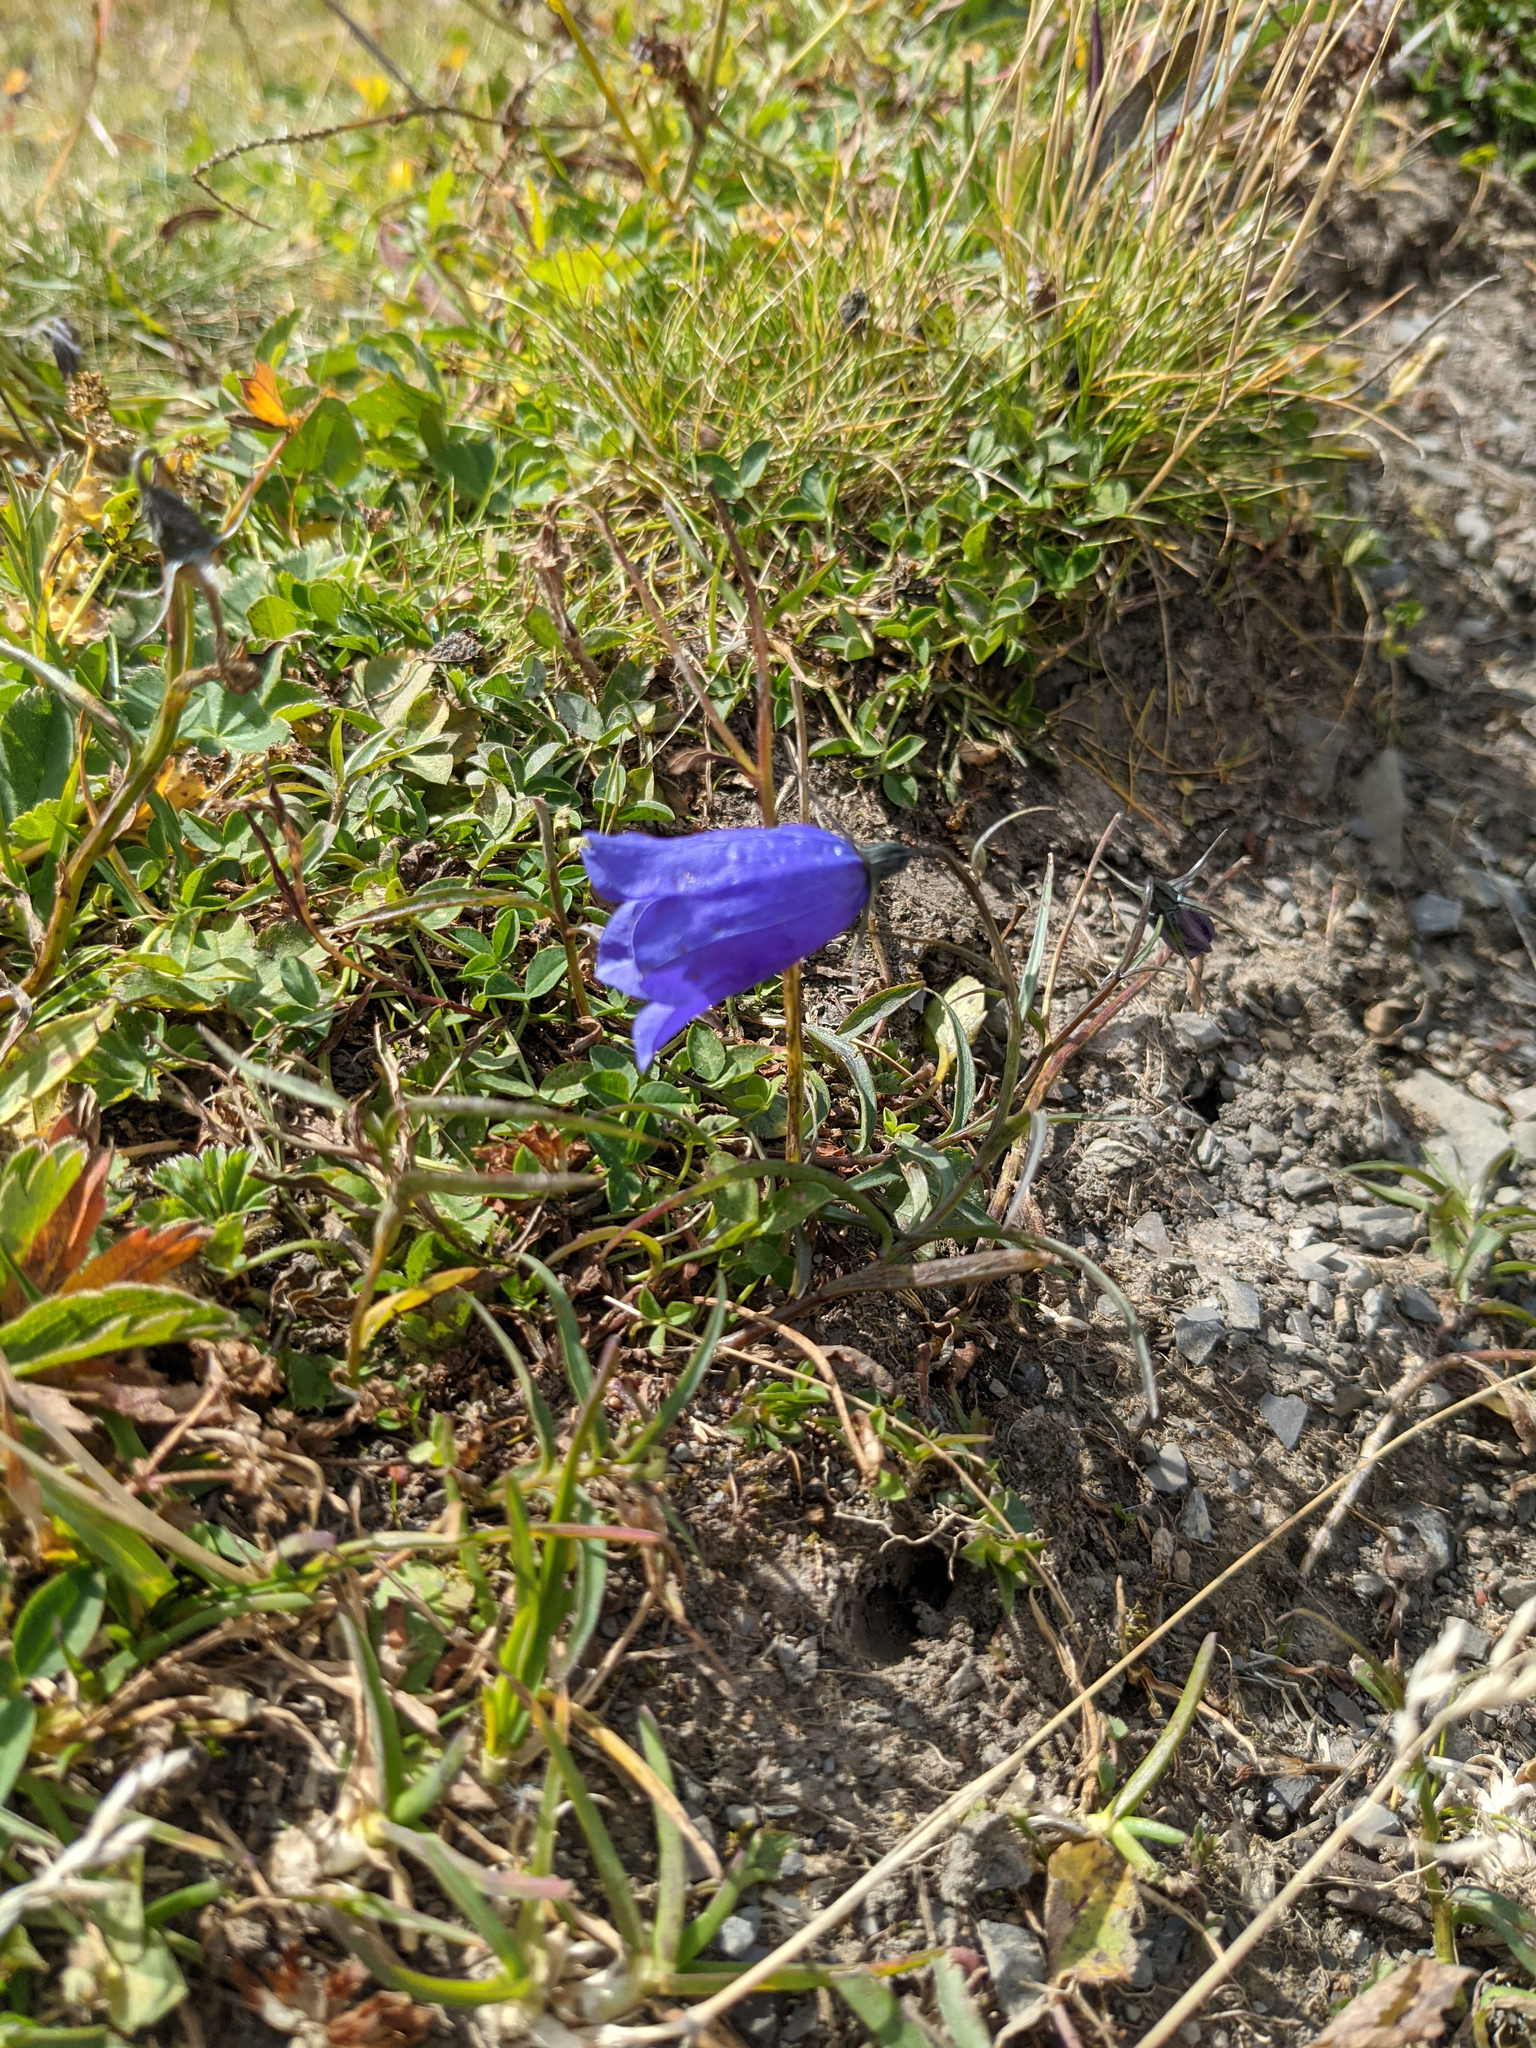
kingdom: Plantae
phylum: Tracheophyta
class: Magnoliopsida
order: Asterales
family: Campanulaceae
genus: Campanula
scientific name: Campanula scheuchzeri
